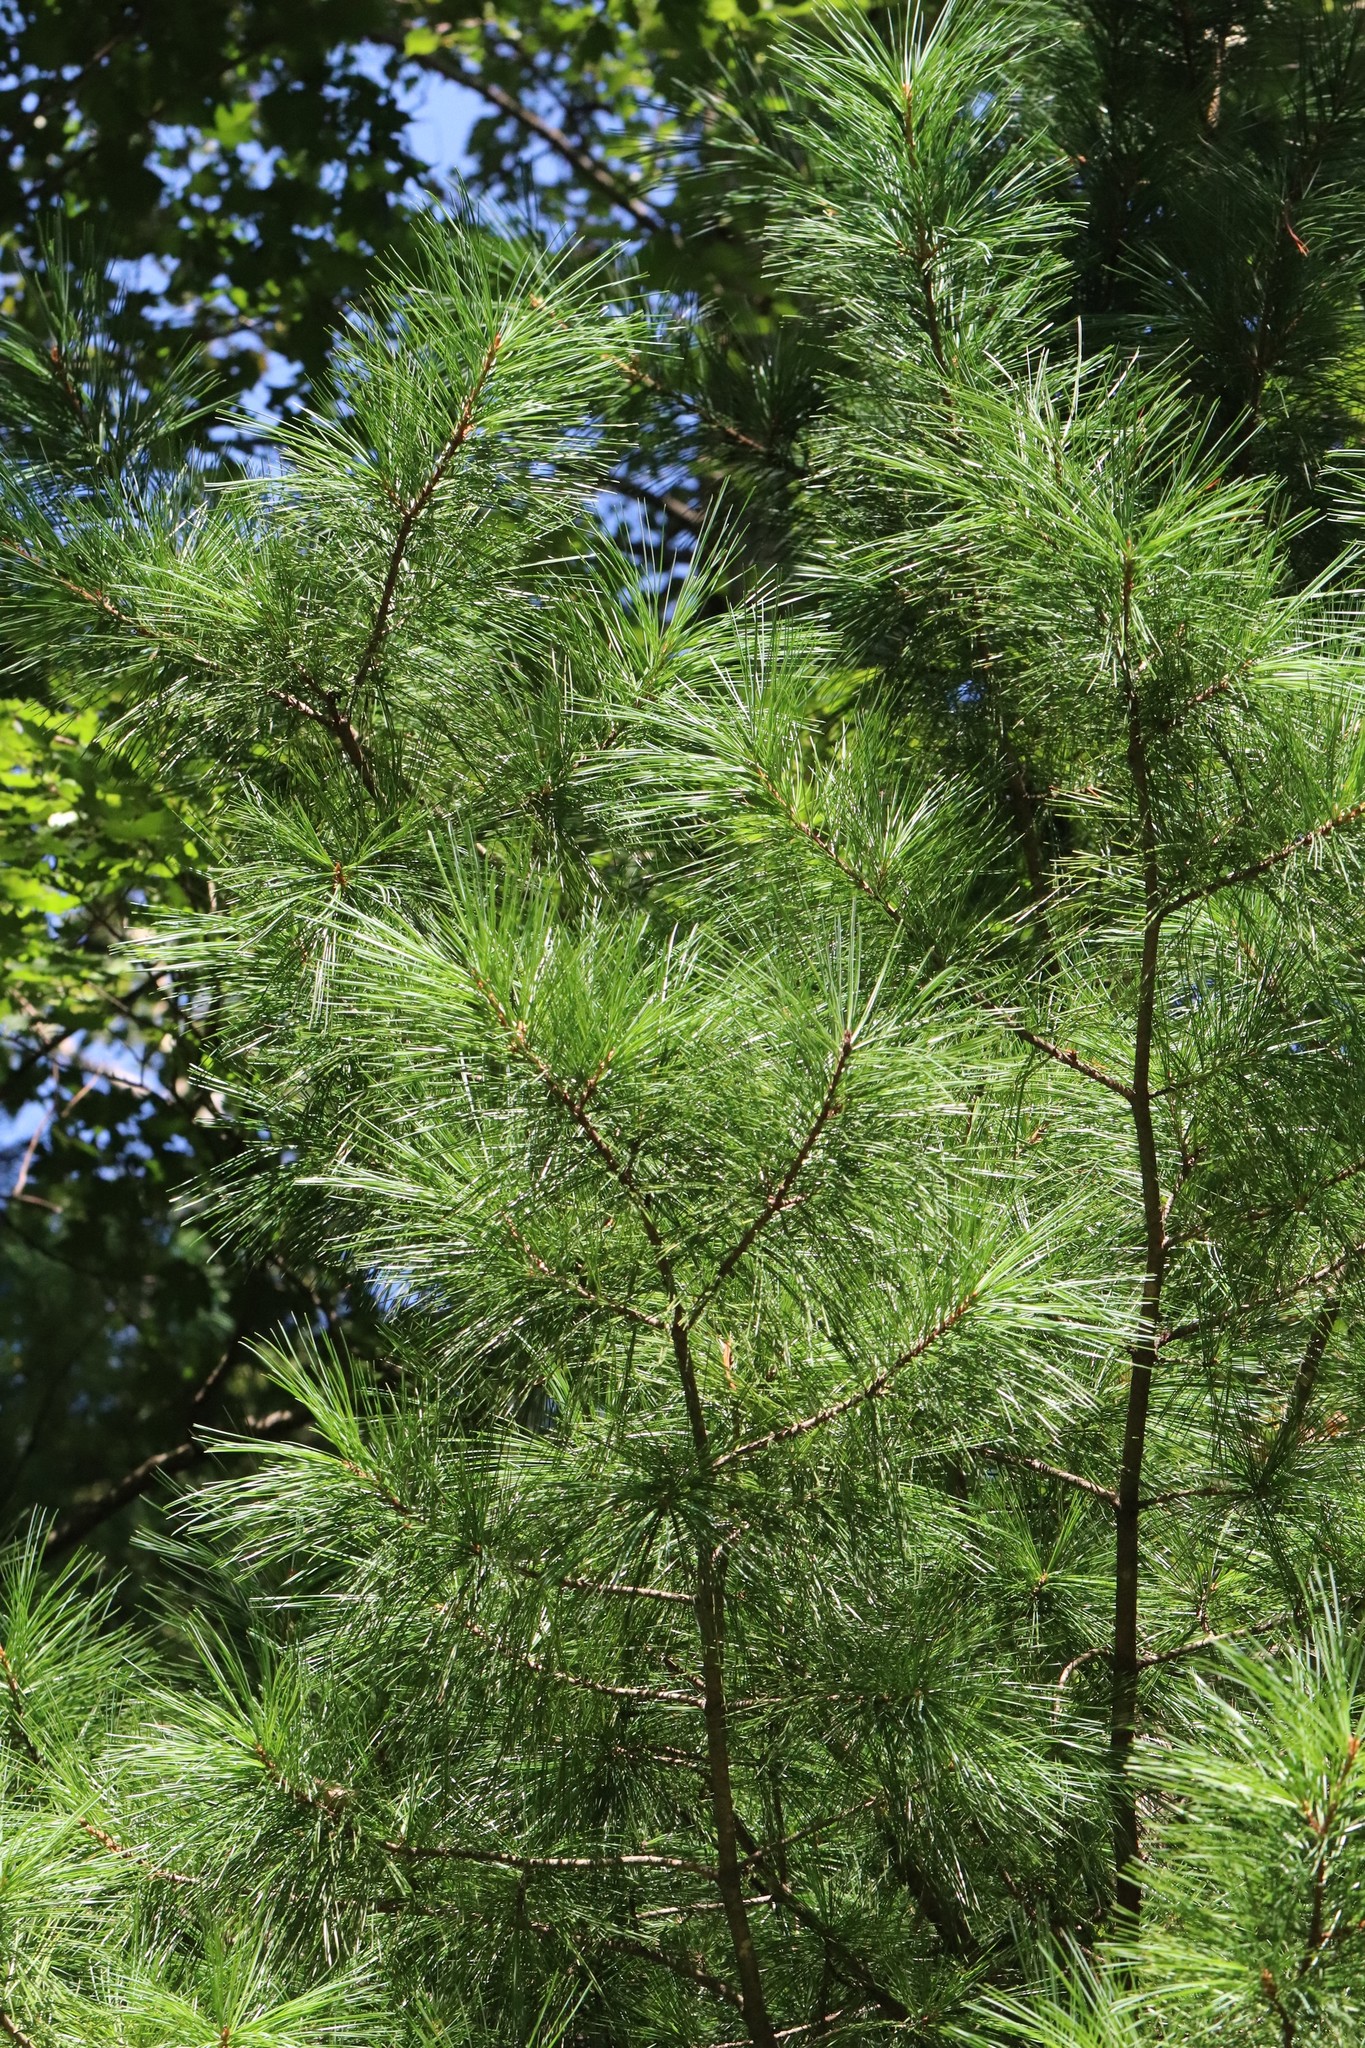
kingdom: Plantae
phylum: Tracheophyta
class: Pinopsida
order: Pinales
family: Pinaceae
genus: Pinus
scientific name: Pinus koraiensis
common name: Korean pine
